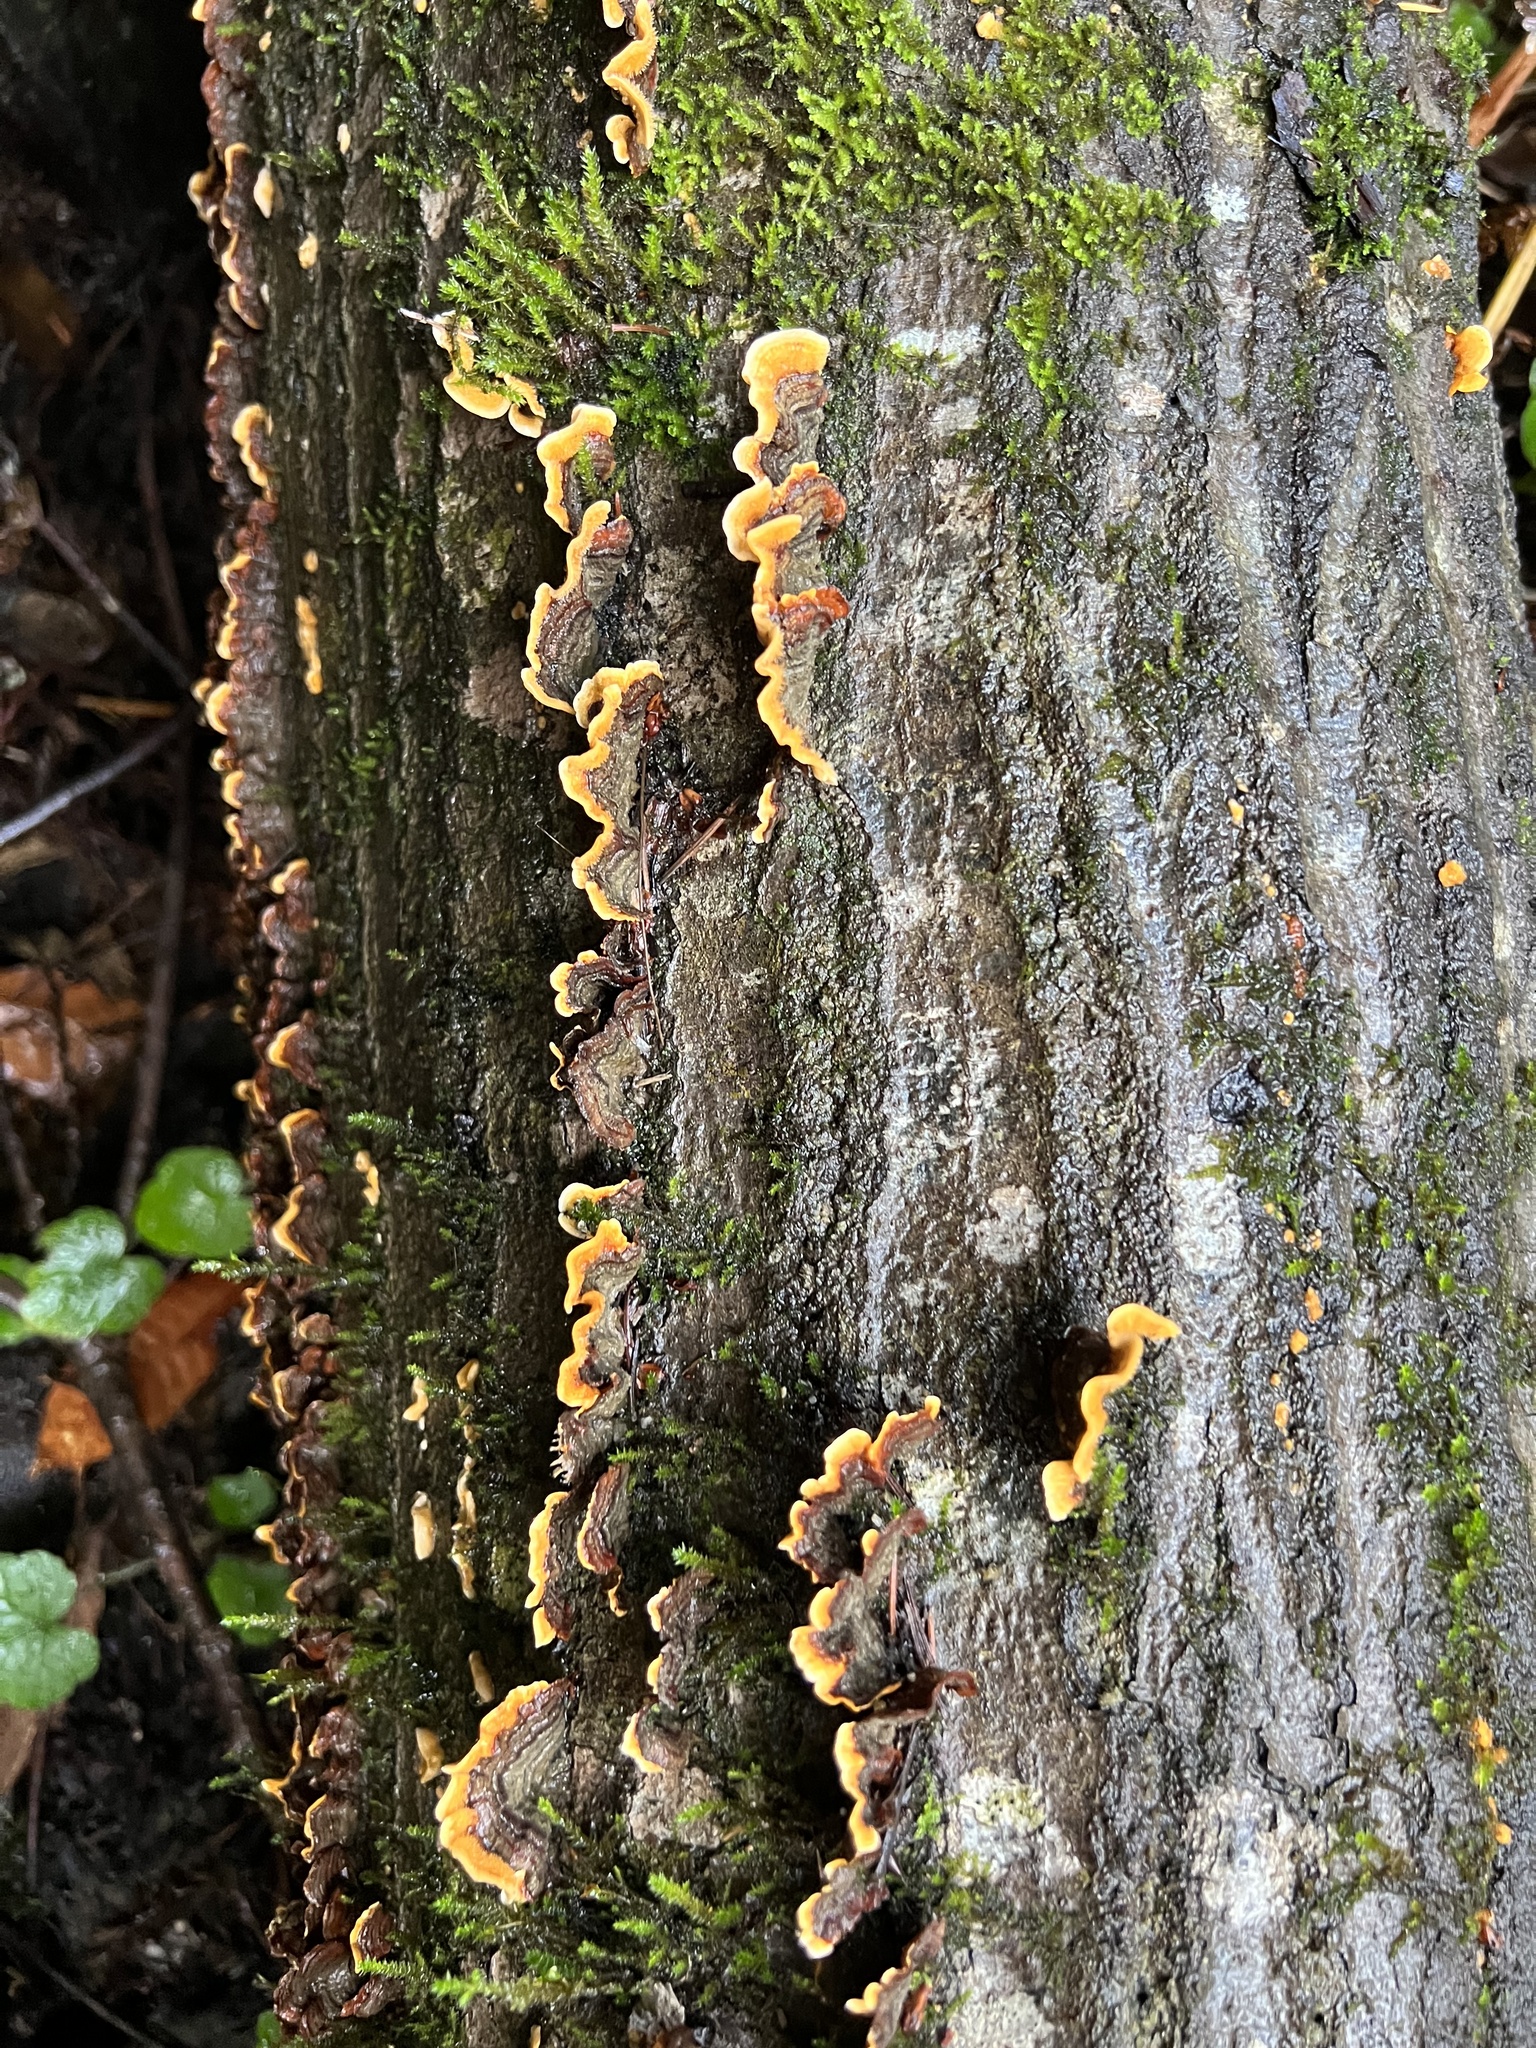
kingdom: Fungi
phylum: Basidiomycota
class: Agaricomycetes
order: Russulales
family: Stereaceae
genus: Stereum
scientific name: Stereum hirsutum
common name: Hairy curtain crust
